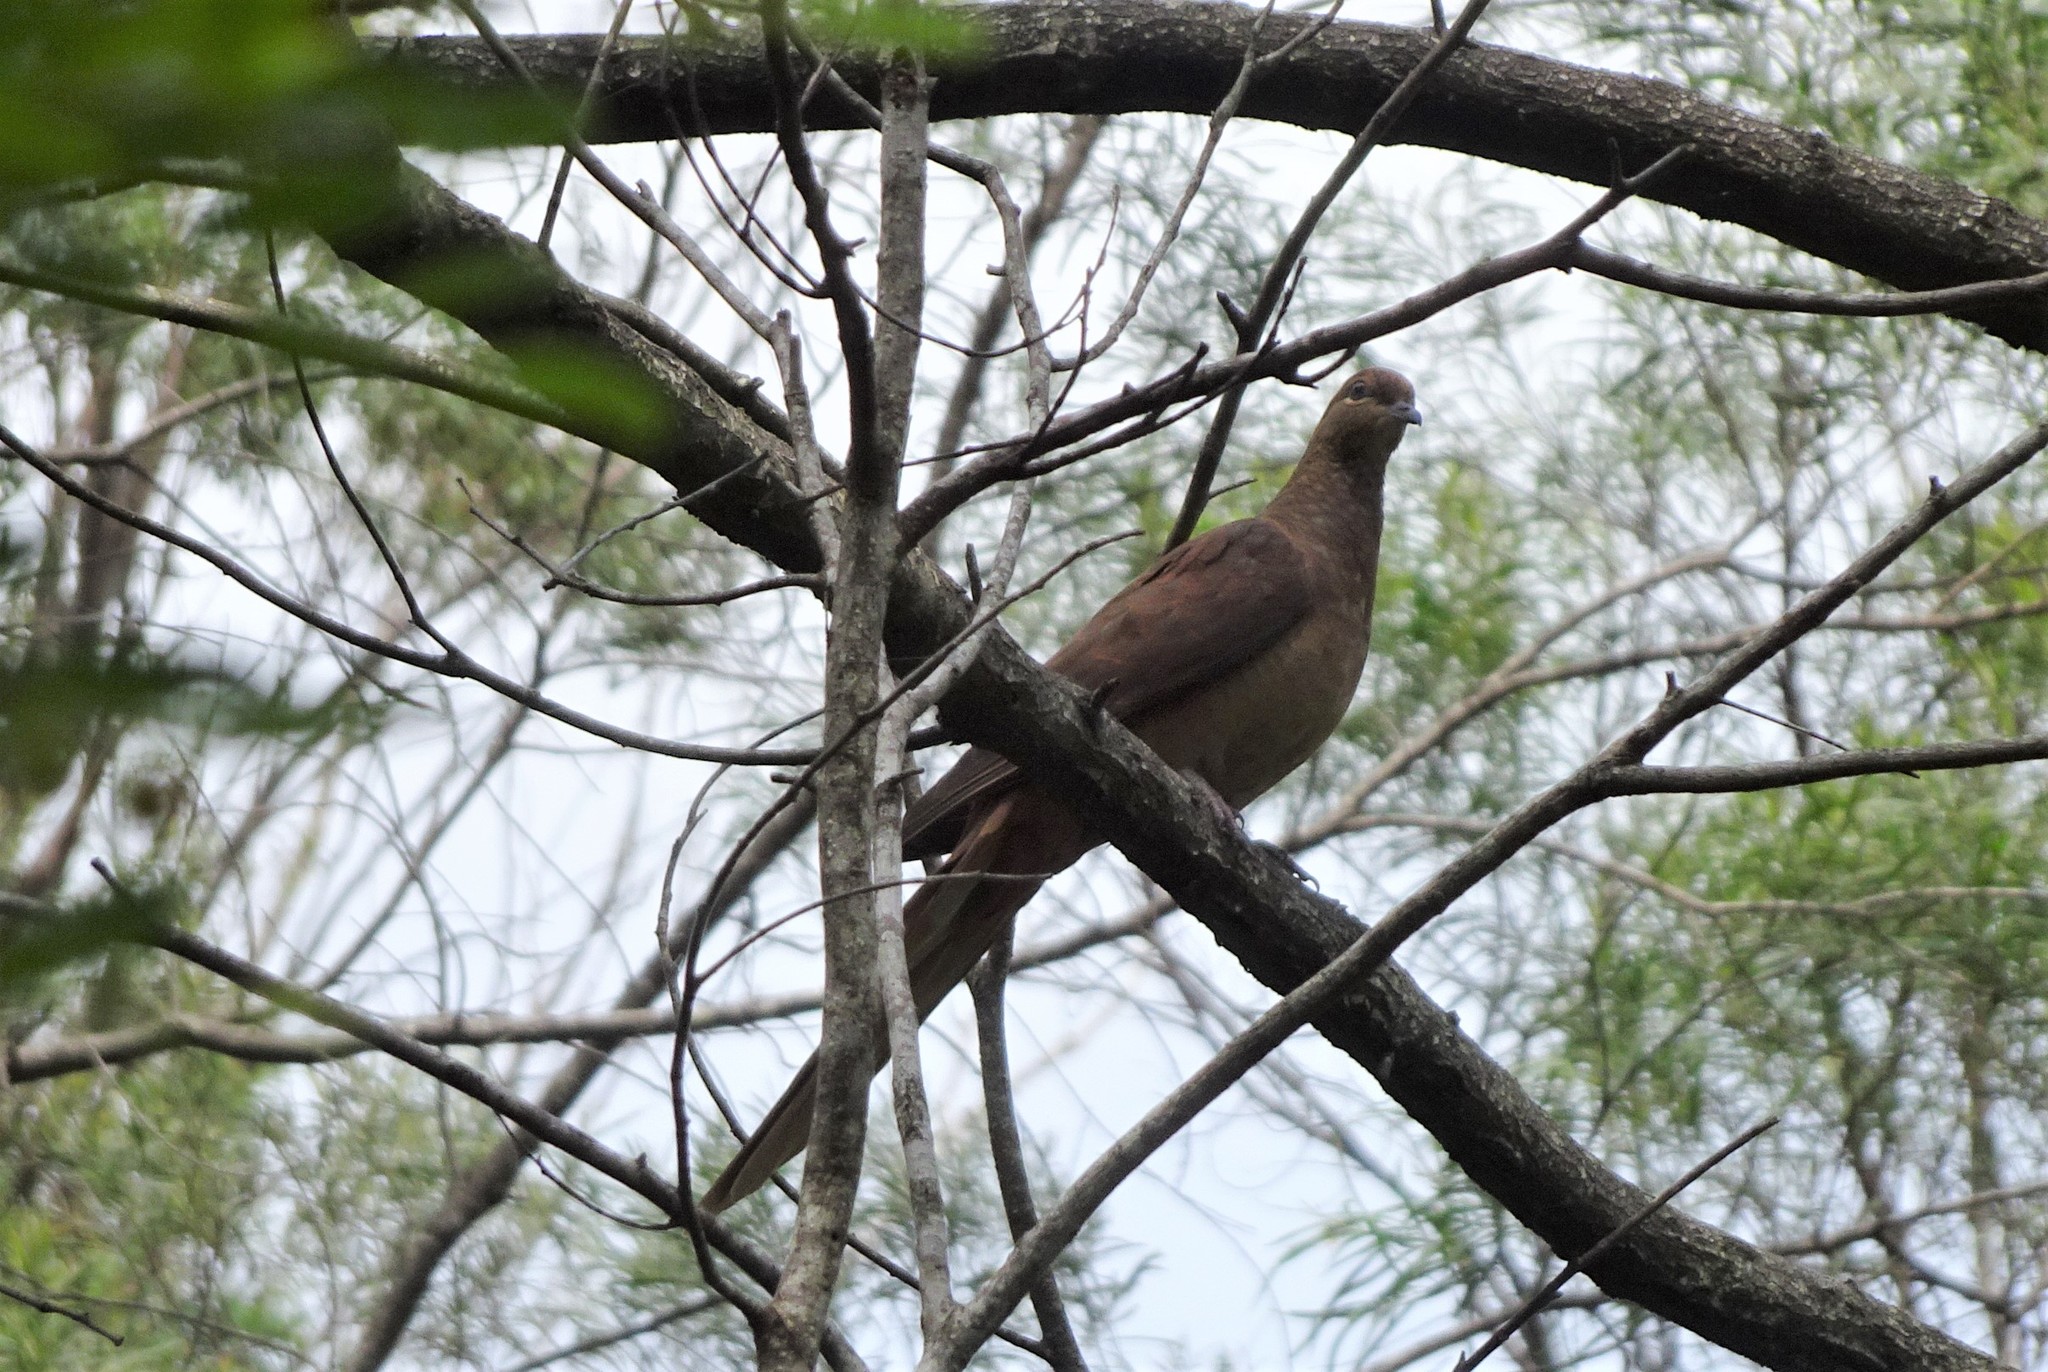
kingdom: Animalia
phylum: Chordata
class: Aves
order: Columbiformes
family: Columbidae
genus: Macropygia
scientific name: Macropygia phasianella
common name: Brown cuckoo-dove
